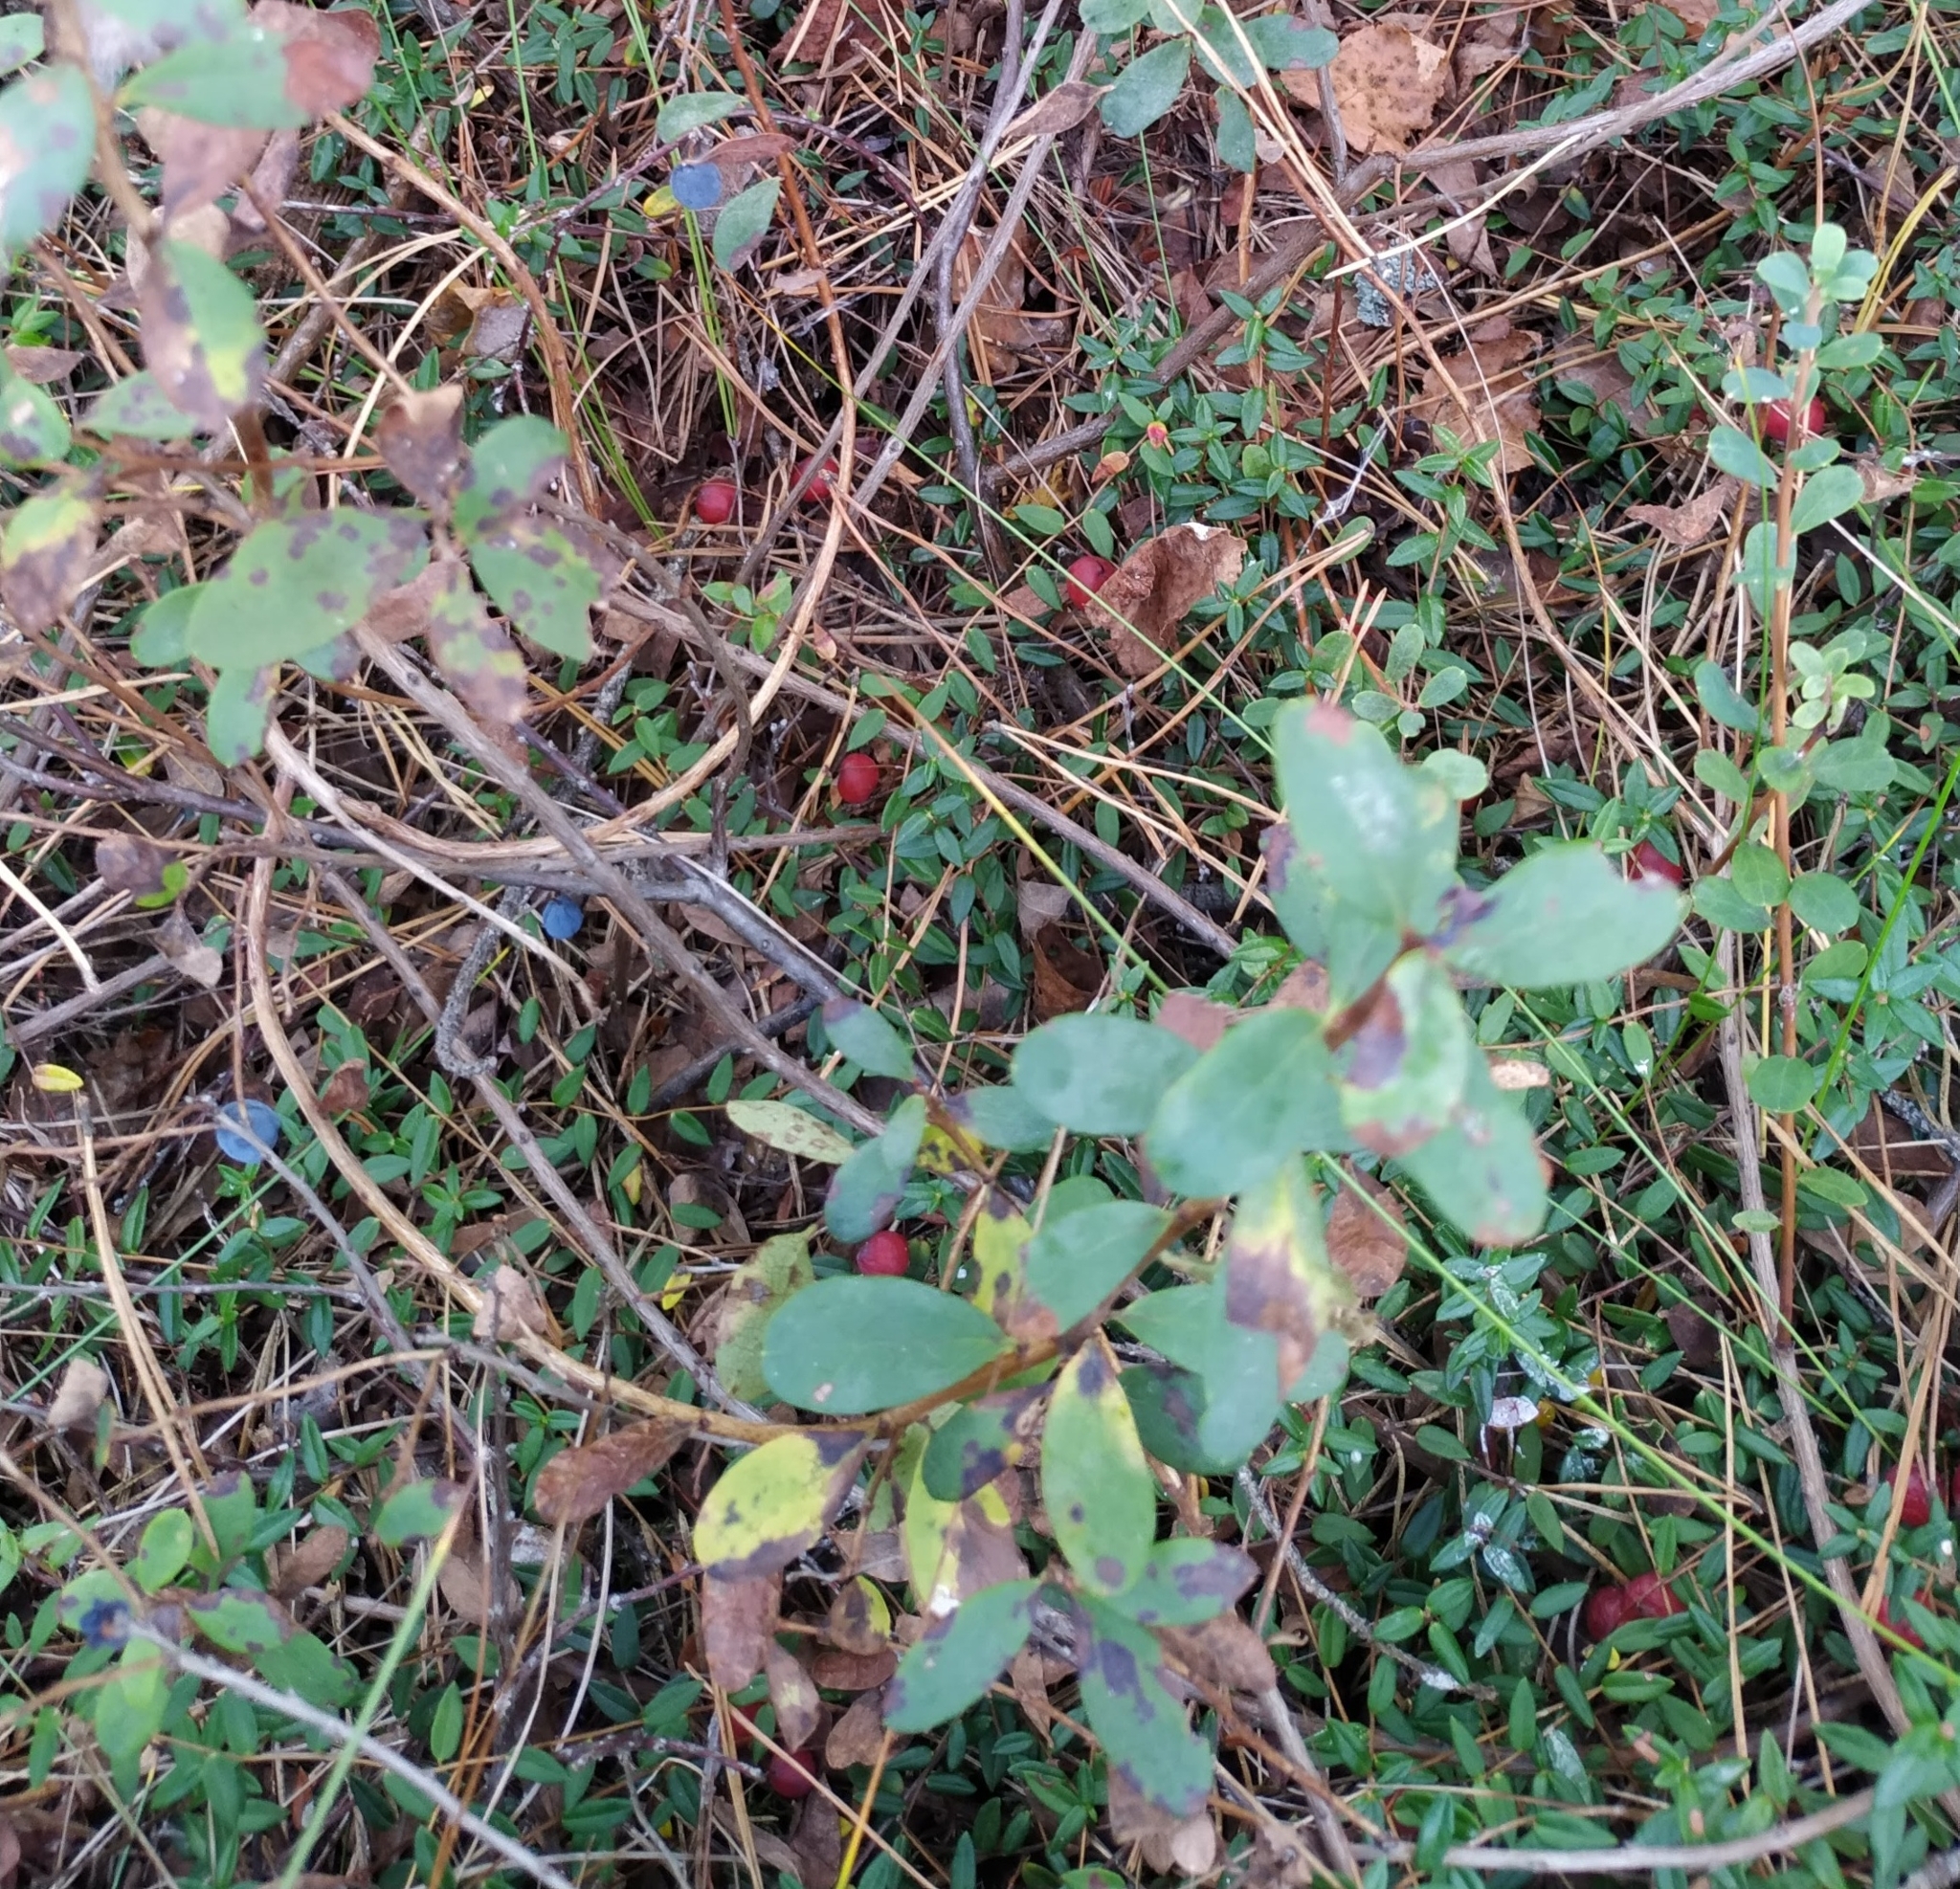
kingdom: Plantae
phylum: Tracheophyta
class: Magnoliopsida
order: Ericales
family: Ericaceae
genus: Vaccinium
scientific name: Vaccinium oxycoccos
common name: Cranberry
